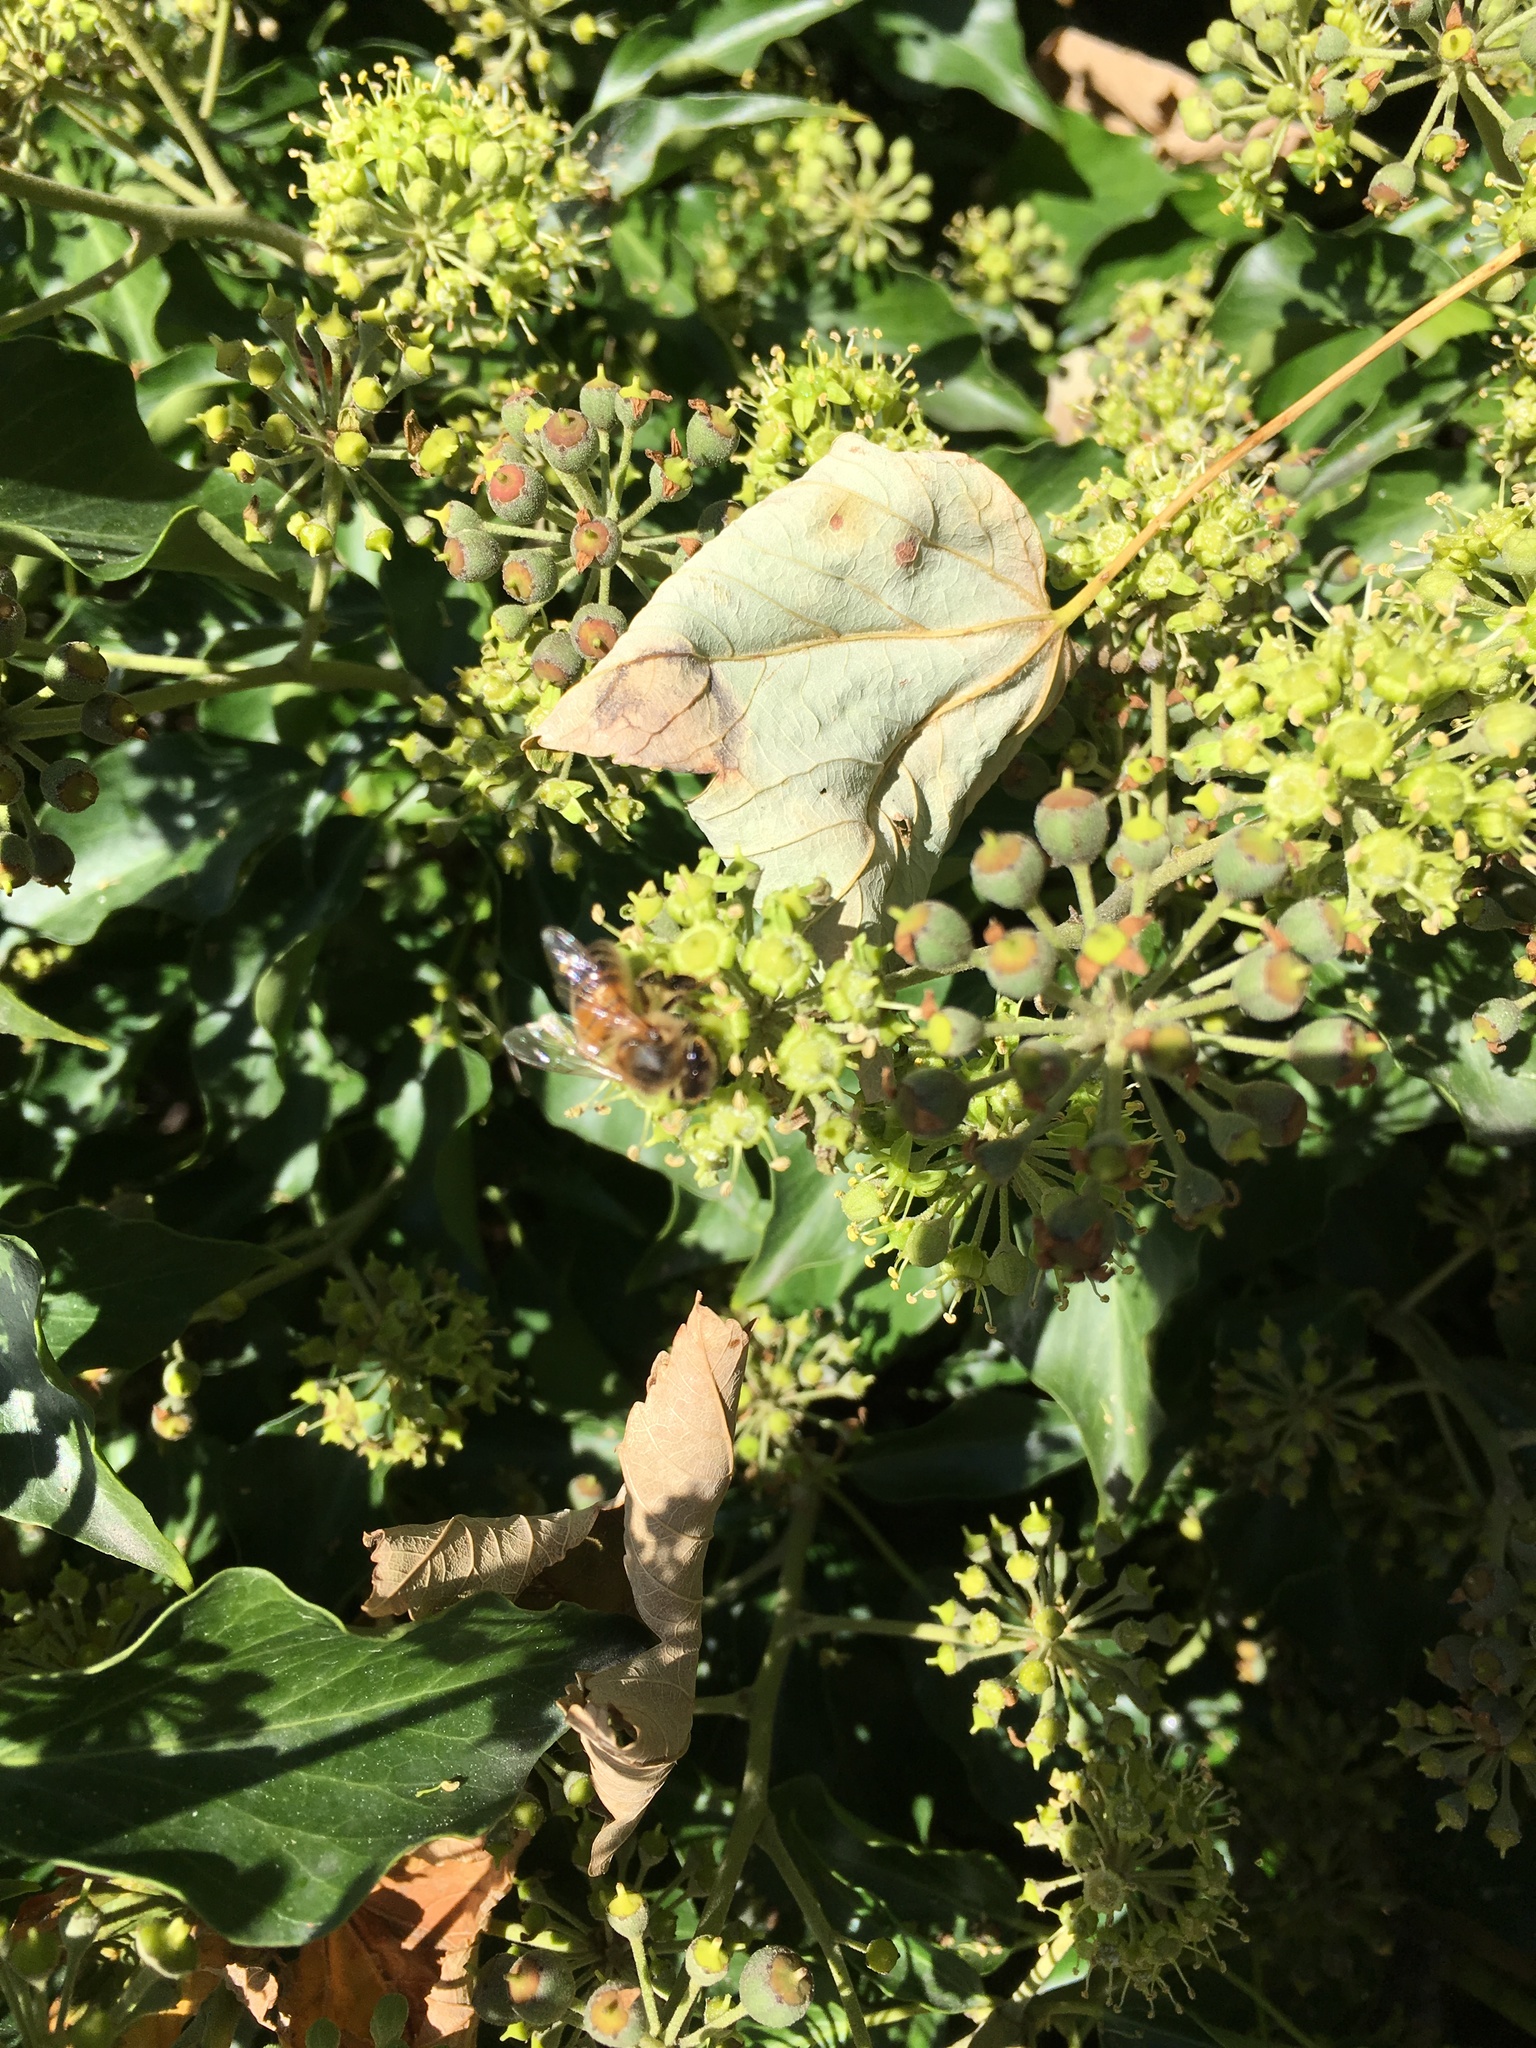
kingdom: Animalia
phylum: Arthropoda
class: Insecta
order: Hymenoptera
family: Apidae
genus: Apis
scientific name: Apis mellifera
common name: Honey bee
